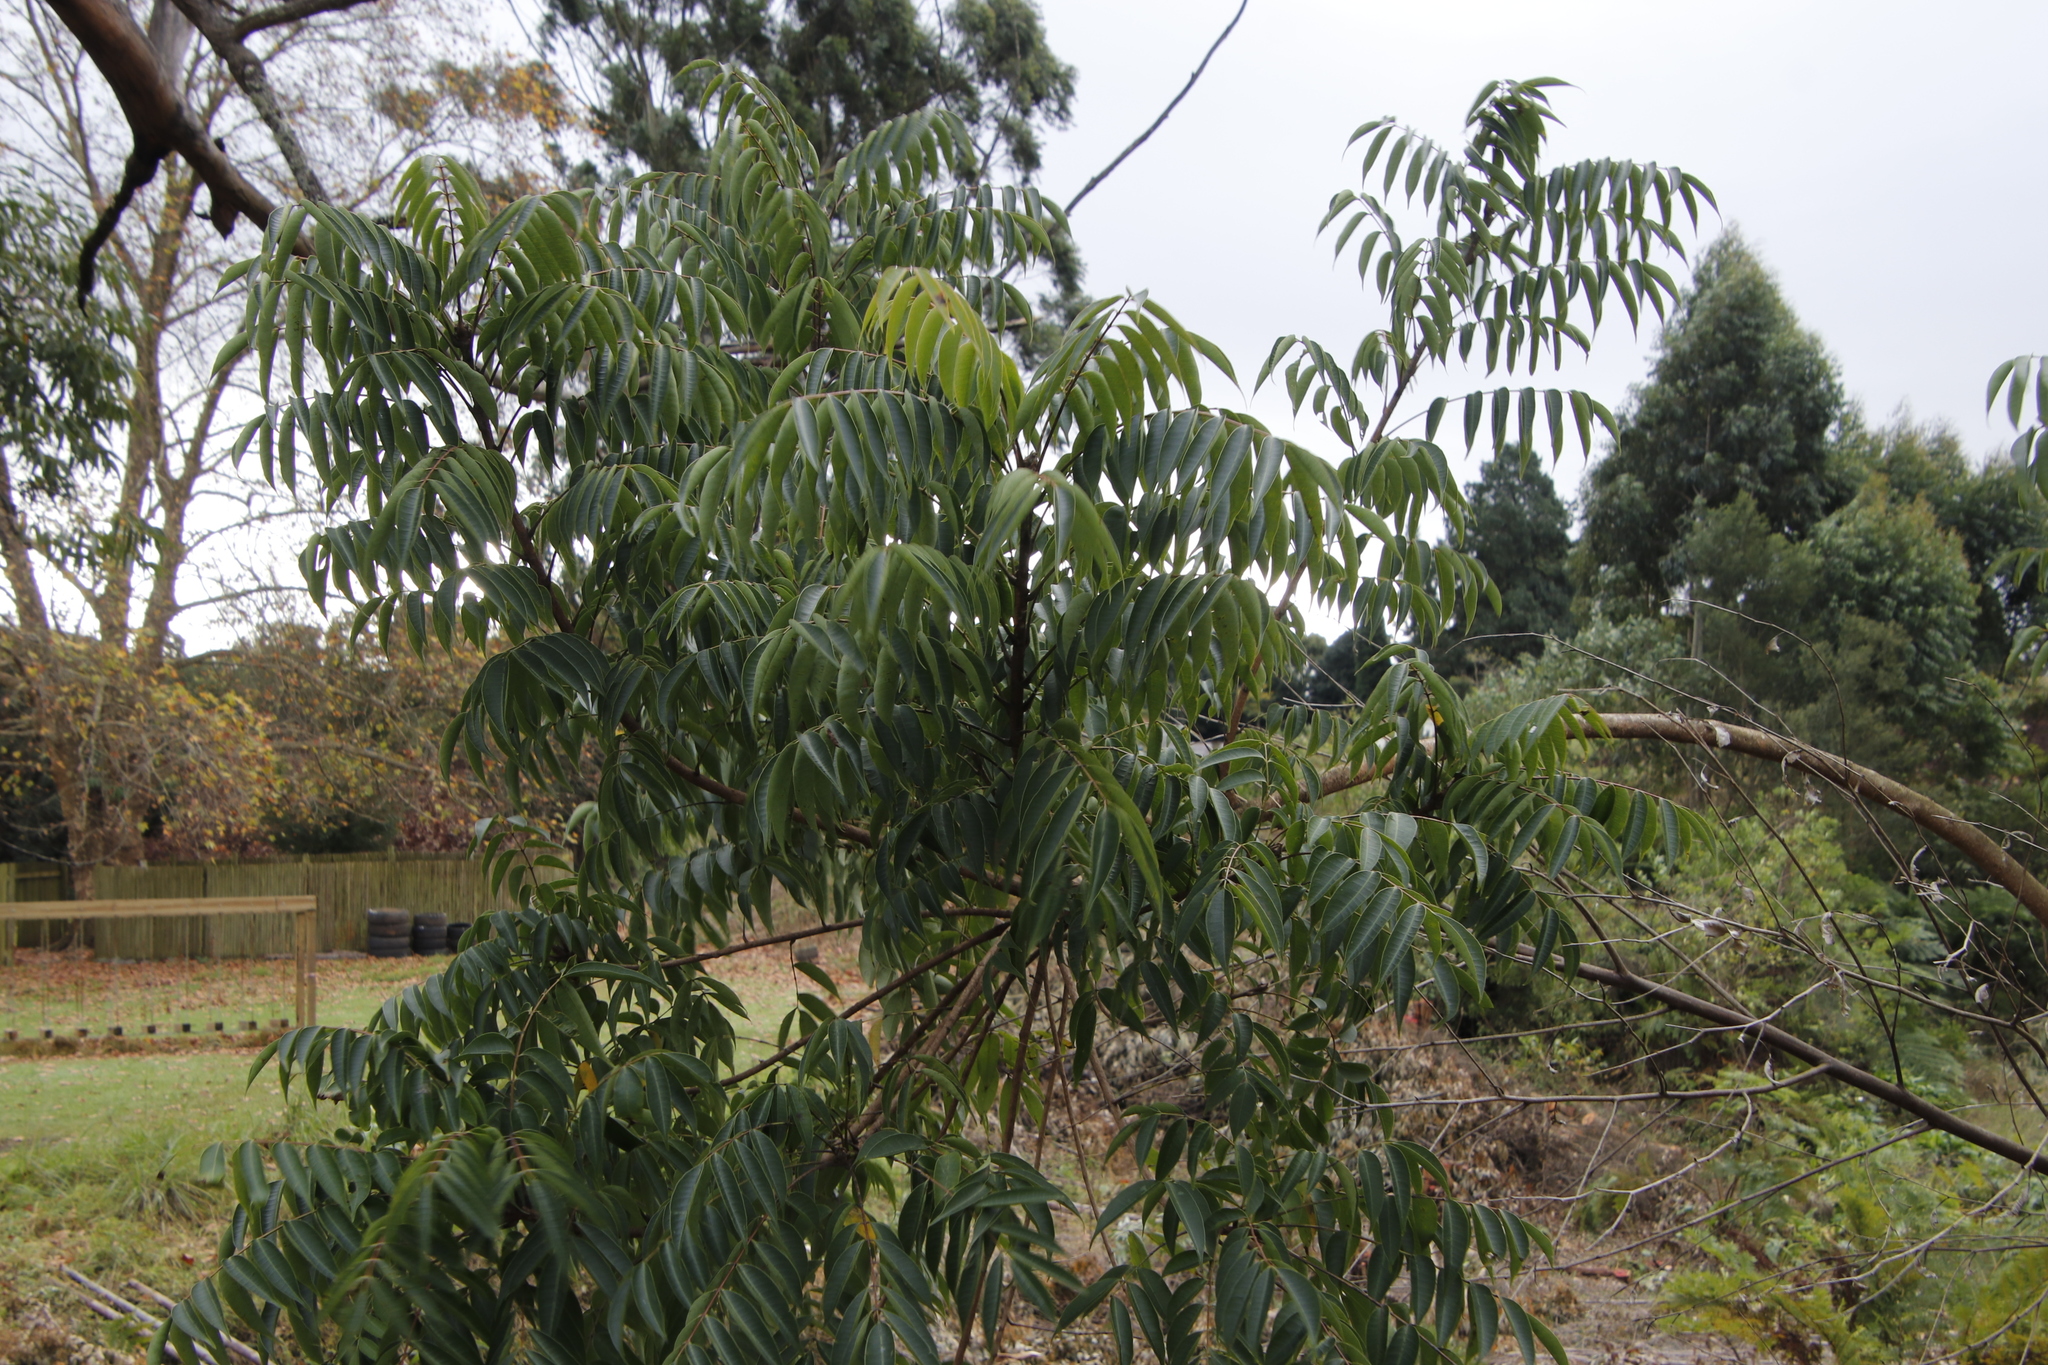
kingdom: Plantae
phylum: Tracheophyta
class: Magnoliopsida
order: Sapindales
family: Meliaceae
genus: Melia
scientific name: Melia azedarach
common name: Chinaberrytree
